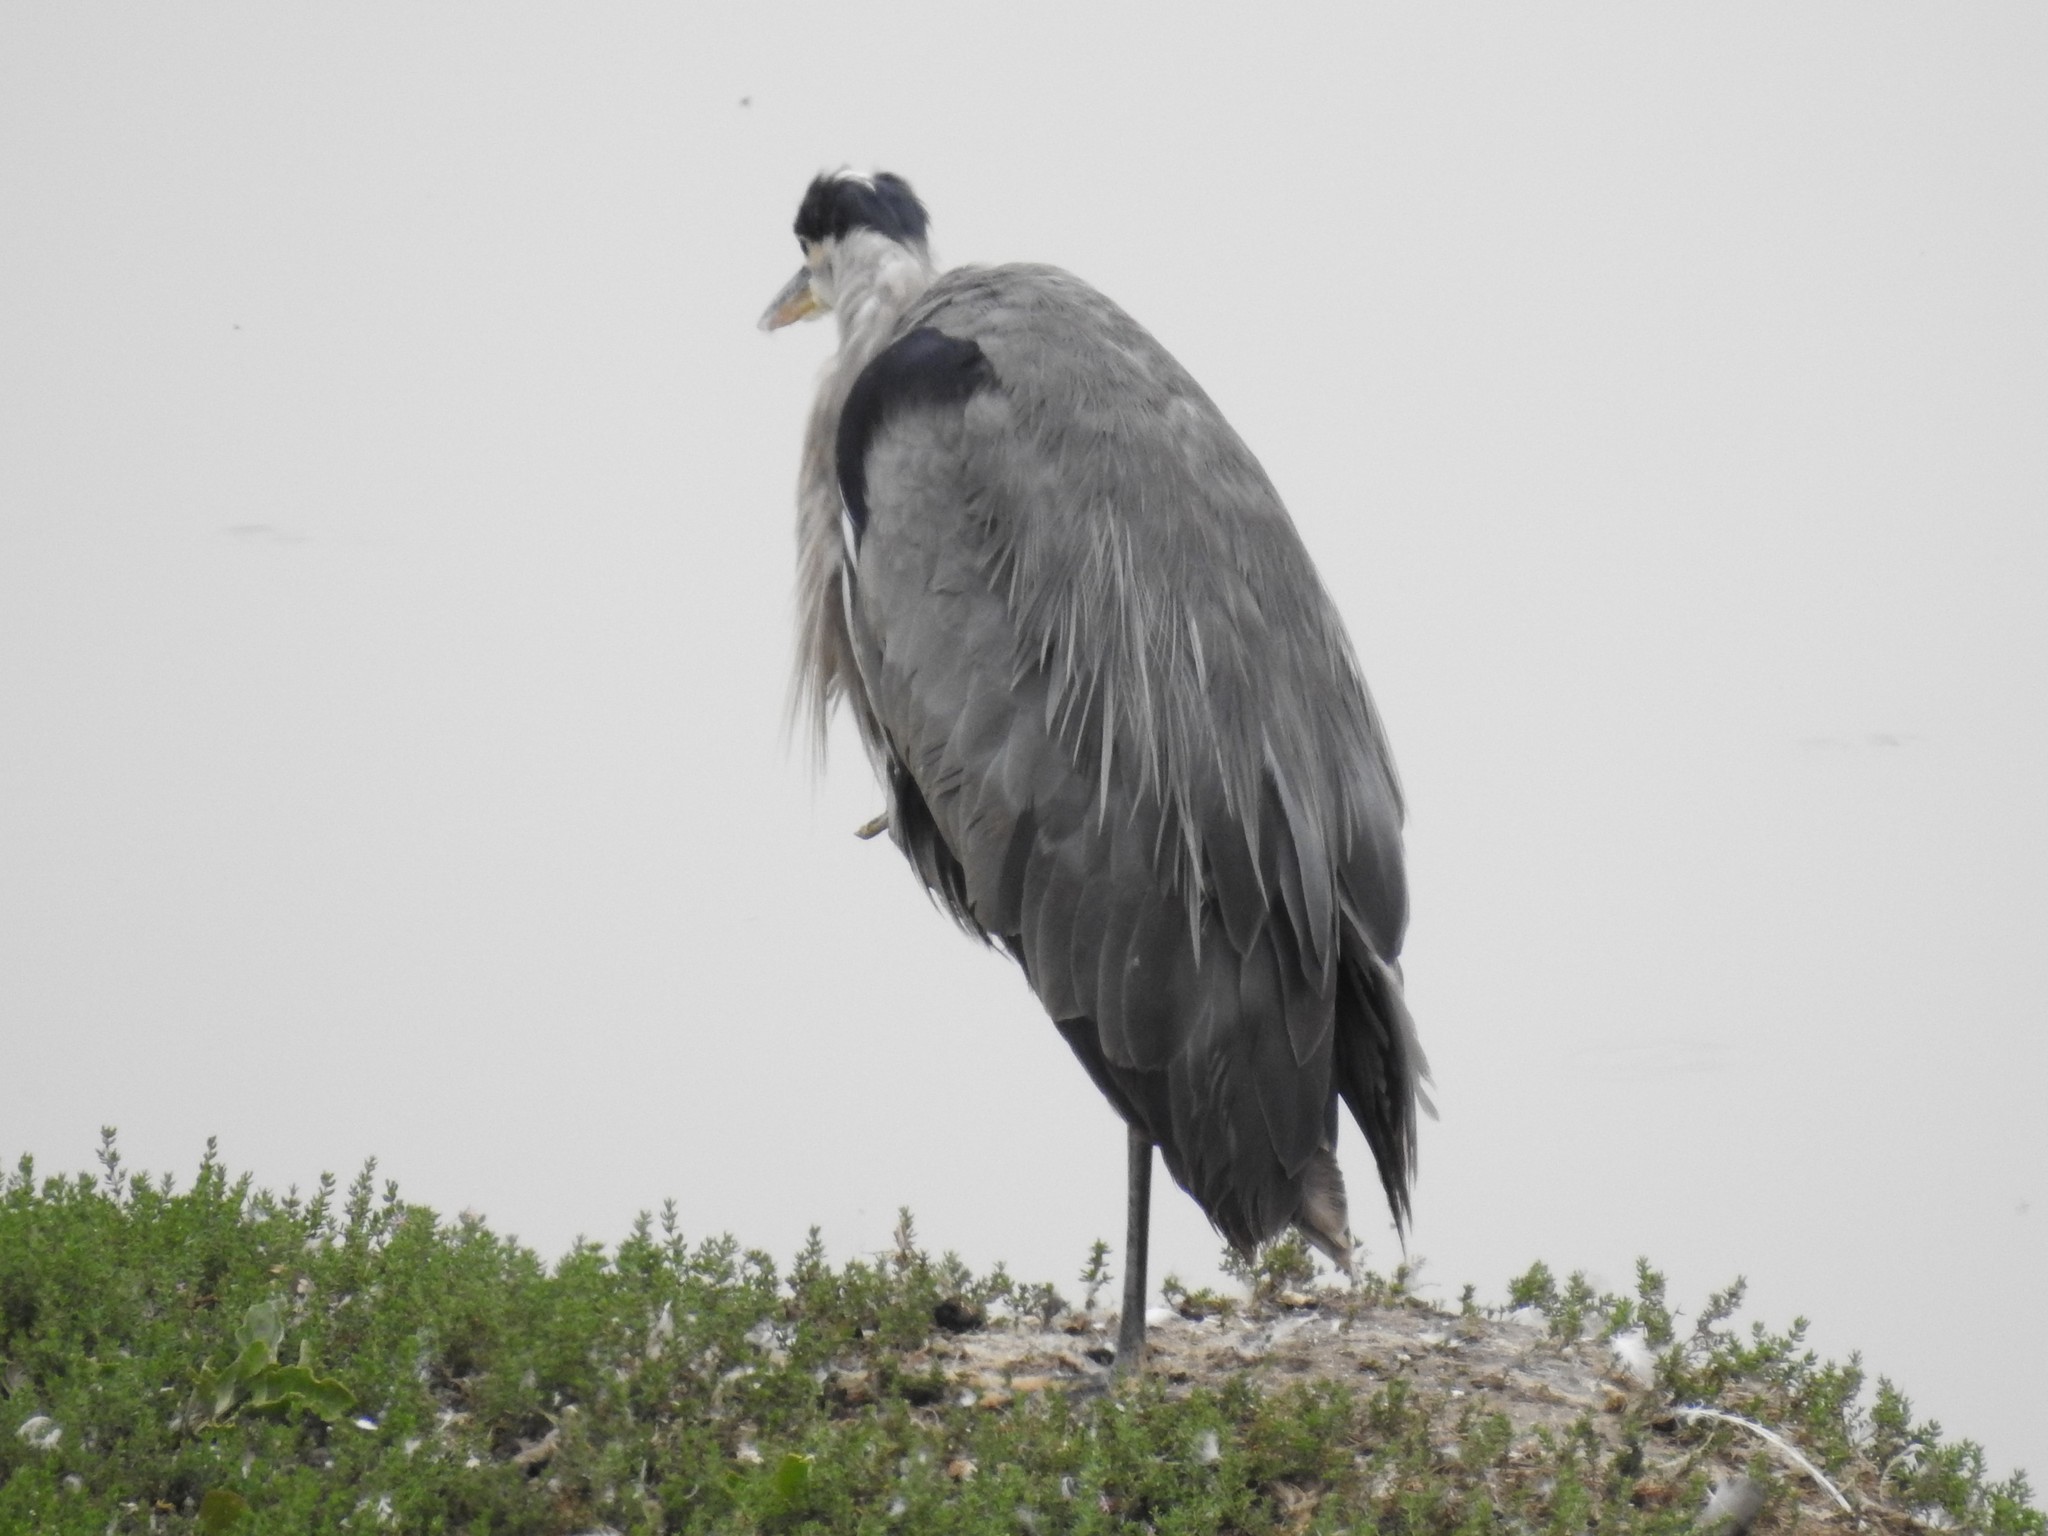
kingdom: Animalia
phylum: Chordata
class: Aves
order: Pelecaniformes
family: Ardeidae
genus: Ardea
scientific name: Ardea herodias
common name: Great blue heron
